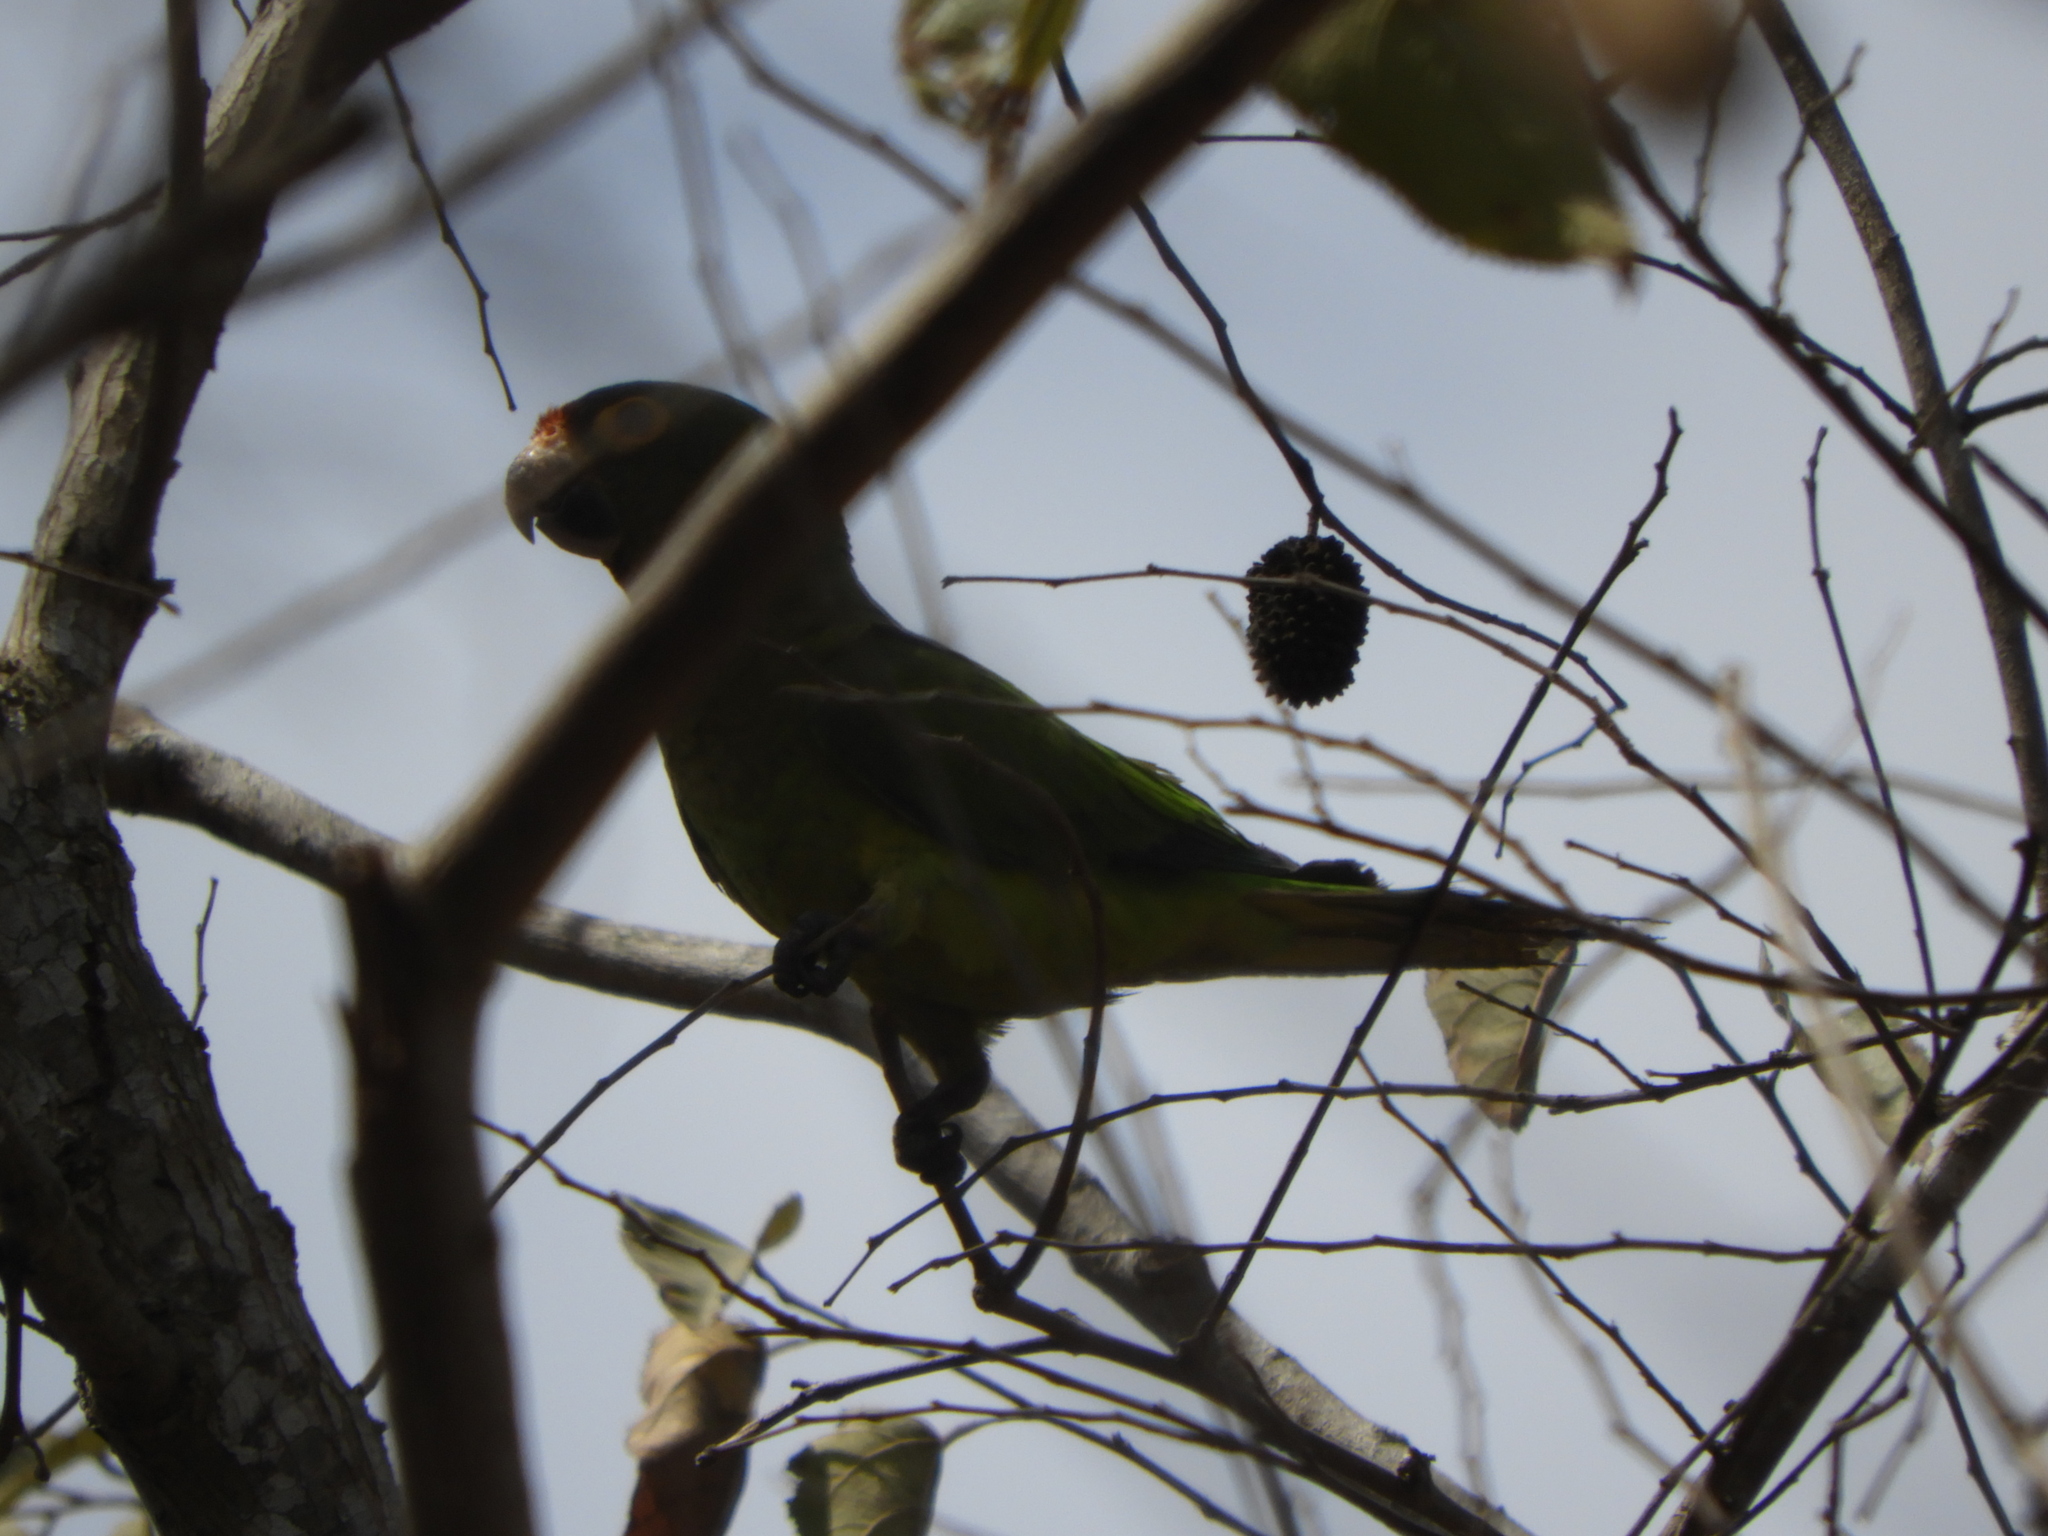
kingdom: Animalia
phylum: Chordata
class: Aves
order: Psittaciformes
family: Psittacidae
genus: Aratinga
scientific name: Aratinga canicularis
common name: Orange-fronted parakeet
